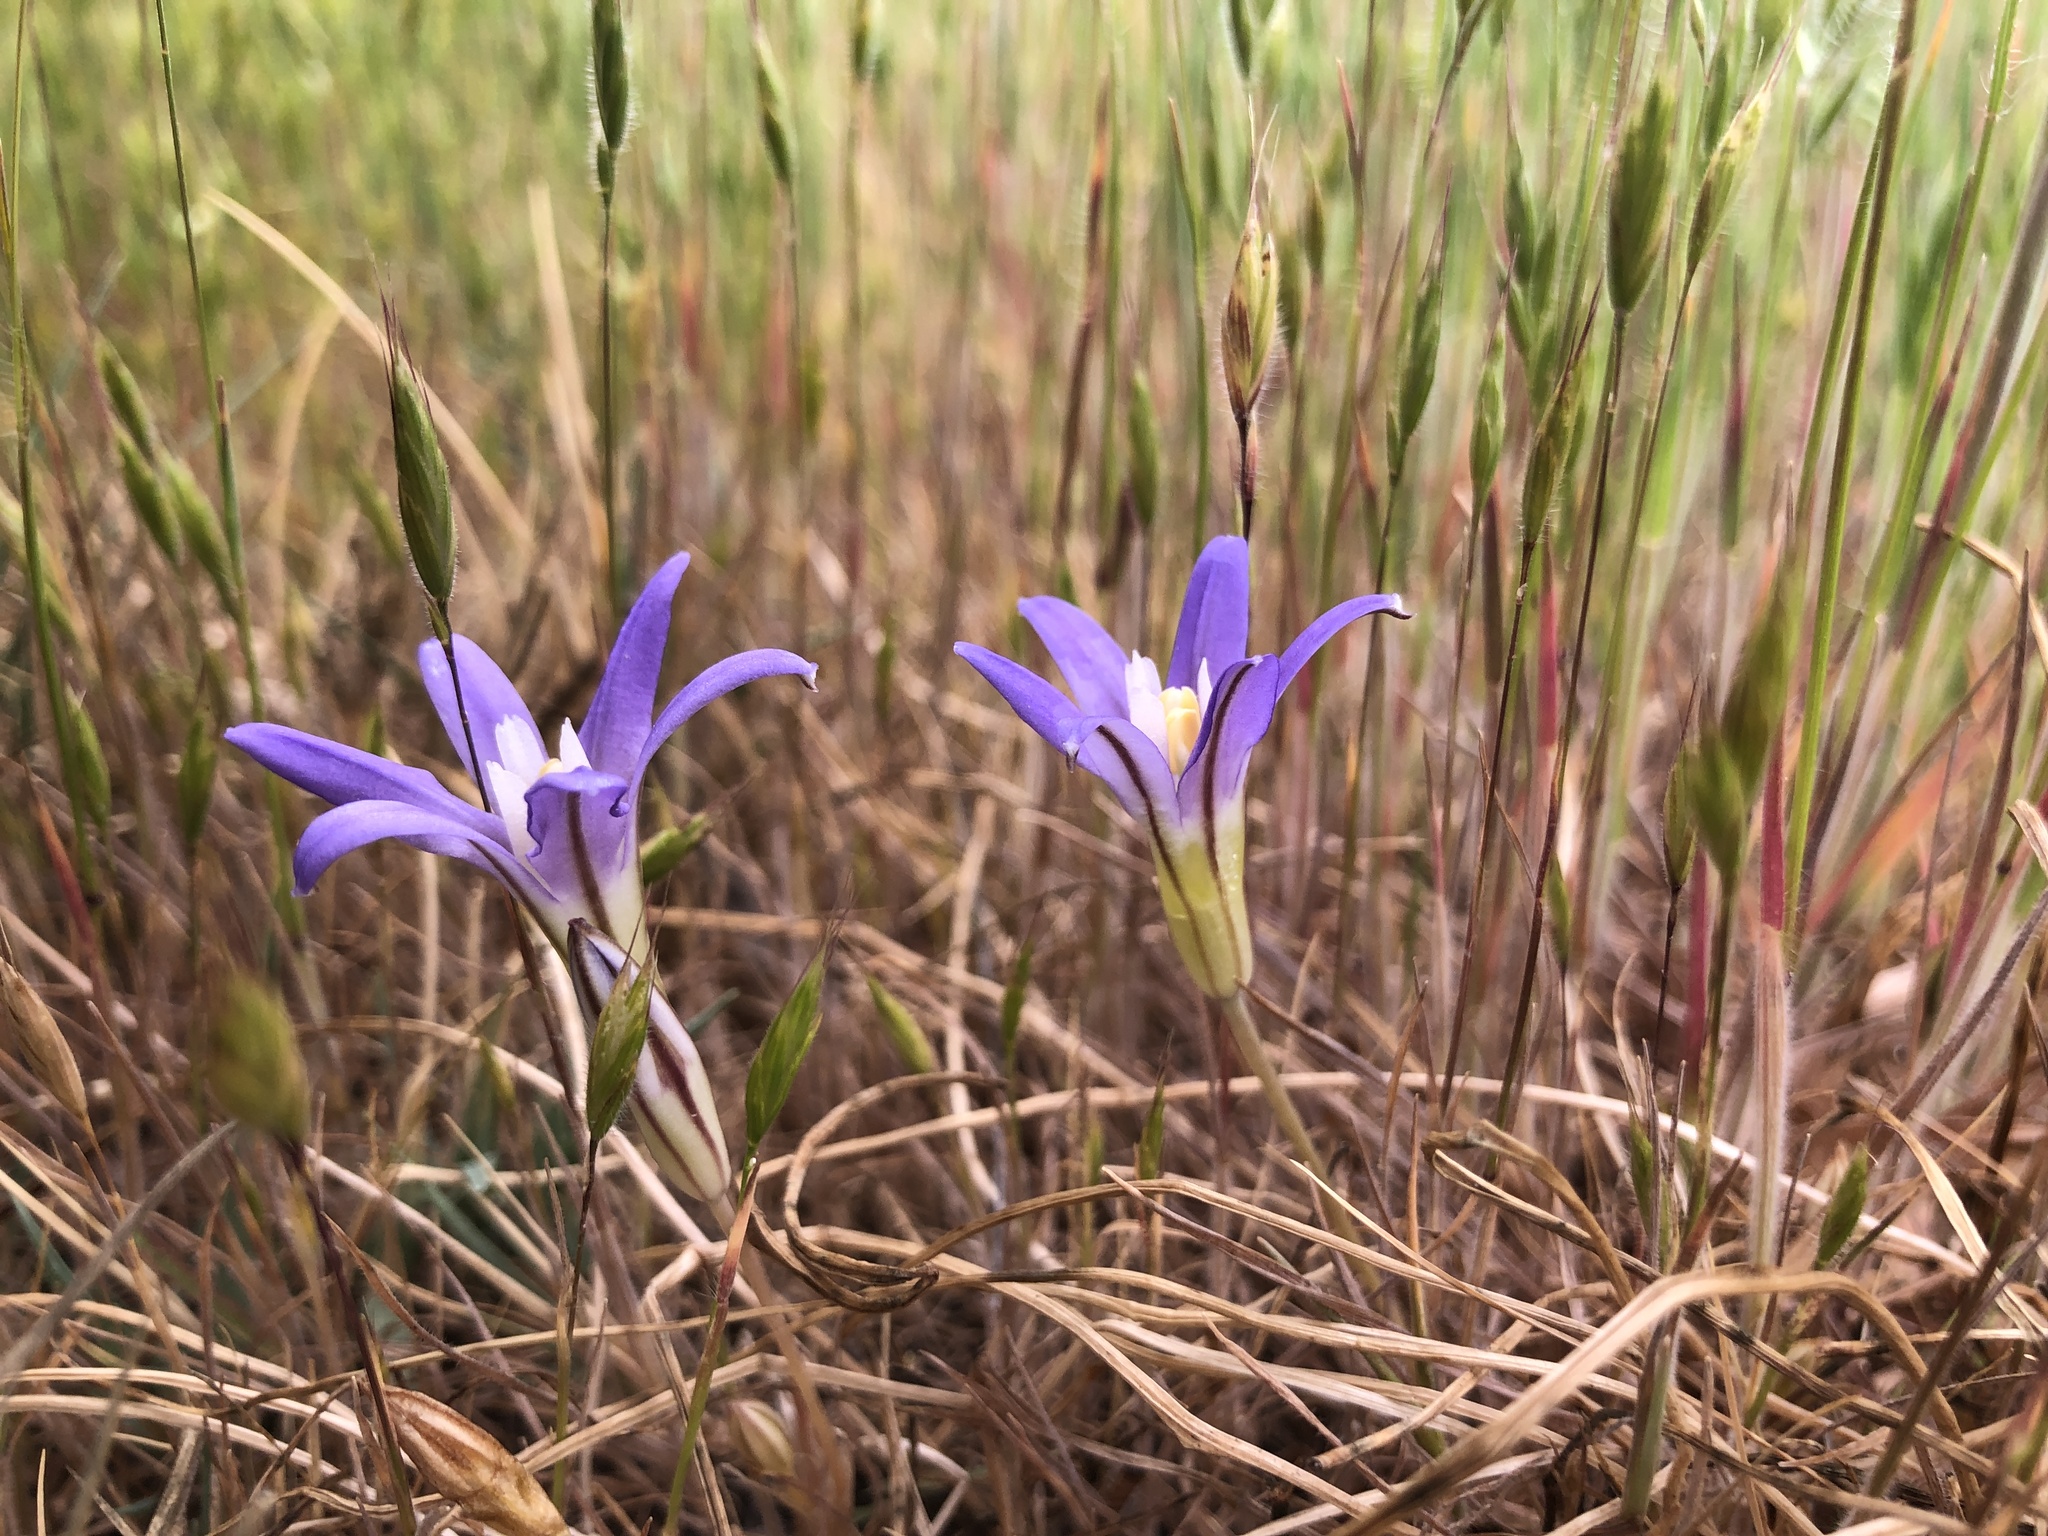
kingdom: Plantae
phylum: Tracheophyta
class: Liliopsida
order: Asparagales
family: Asparagaceae
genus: Brodiaea
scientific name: Brodiaea terrestris
